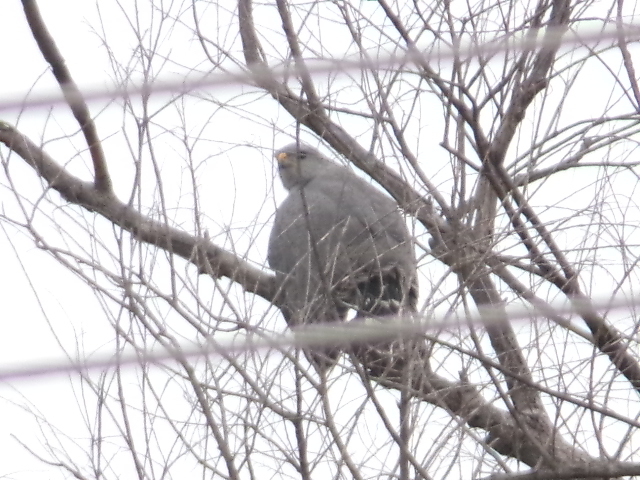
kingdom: Animalia
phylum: Chordata
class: Aves
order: Accipitriformes
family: Accipitridae
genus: Buteo
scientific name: Buteo nitidus
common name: Grey-lined hawk
